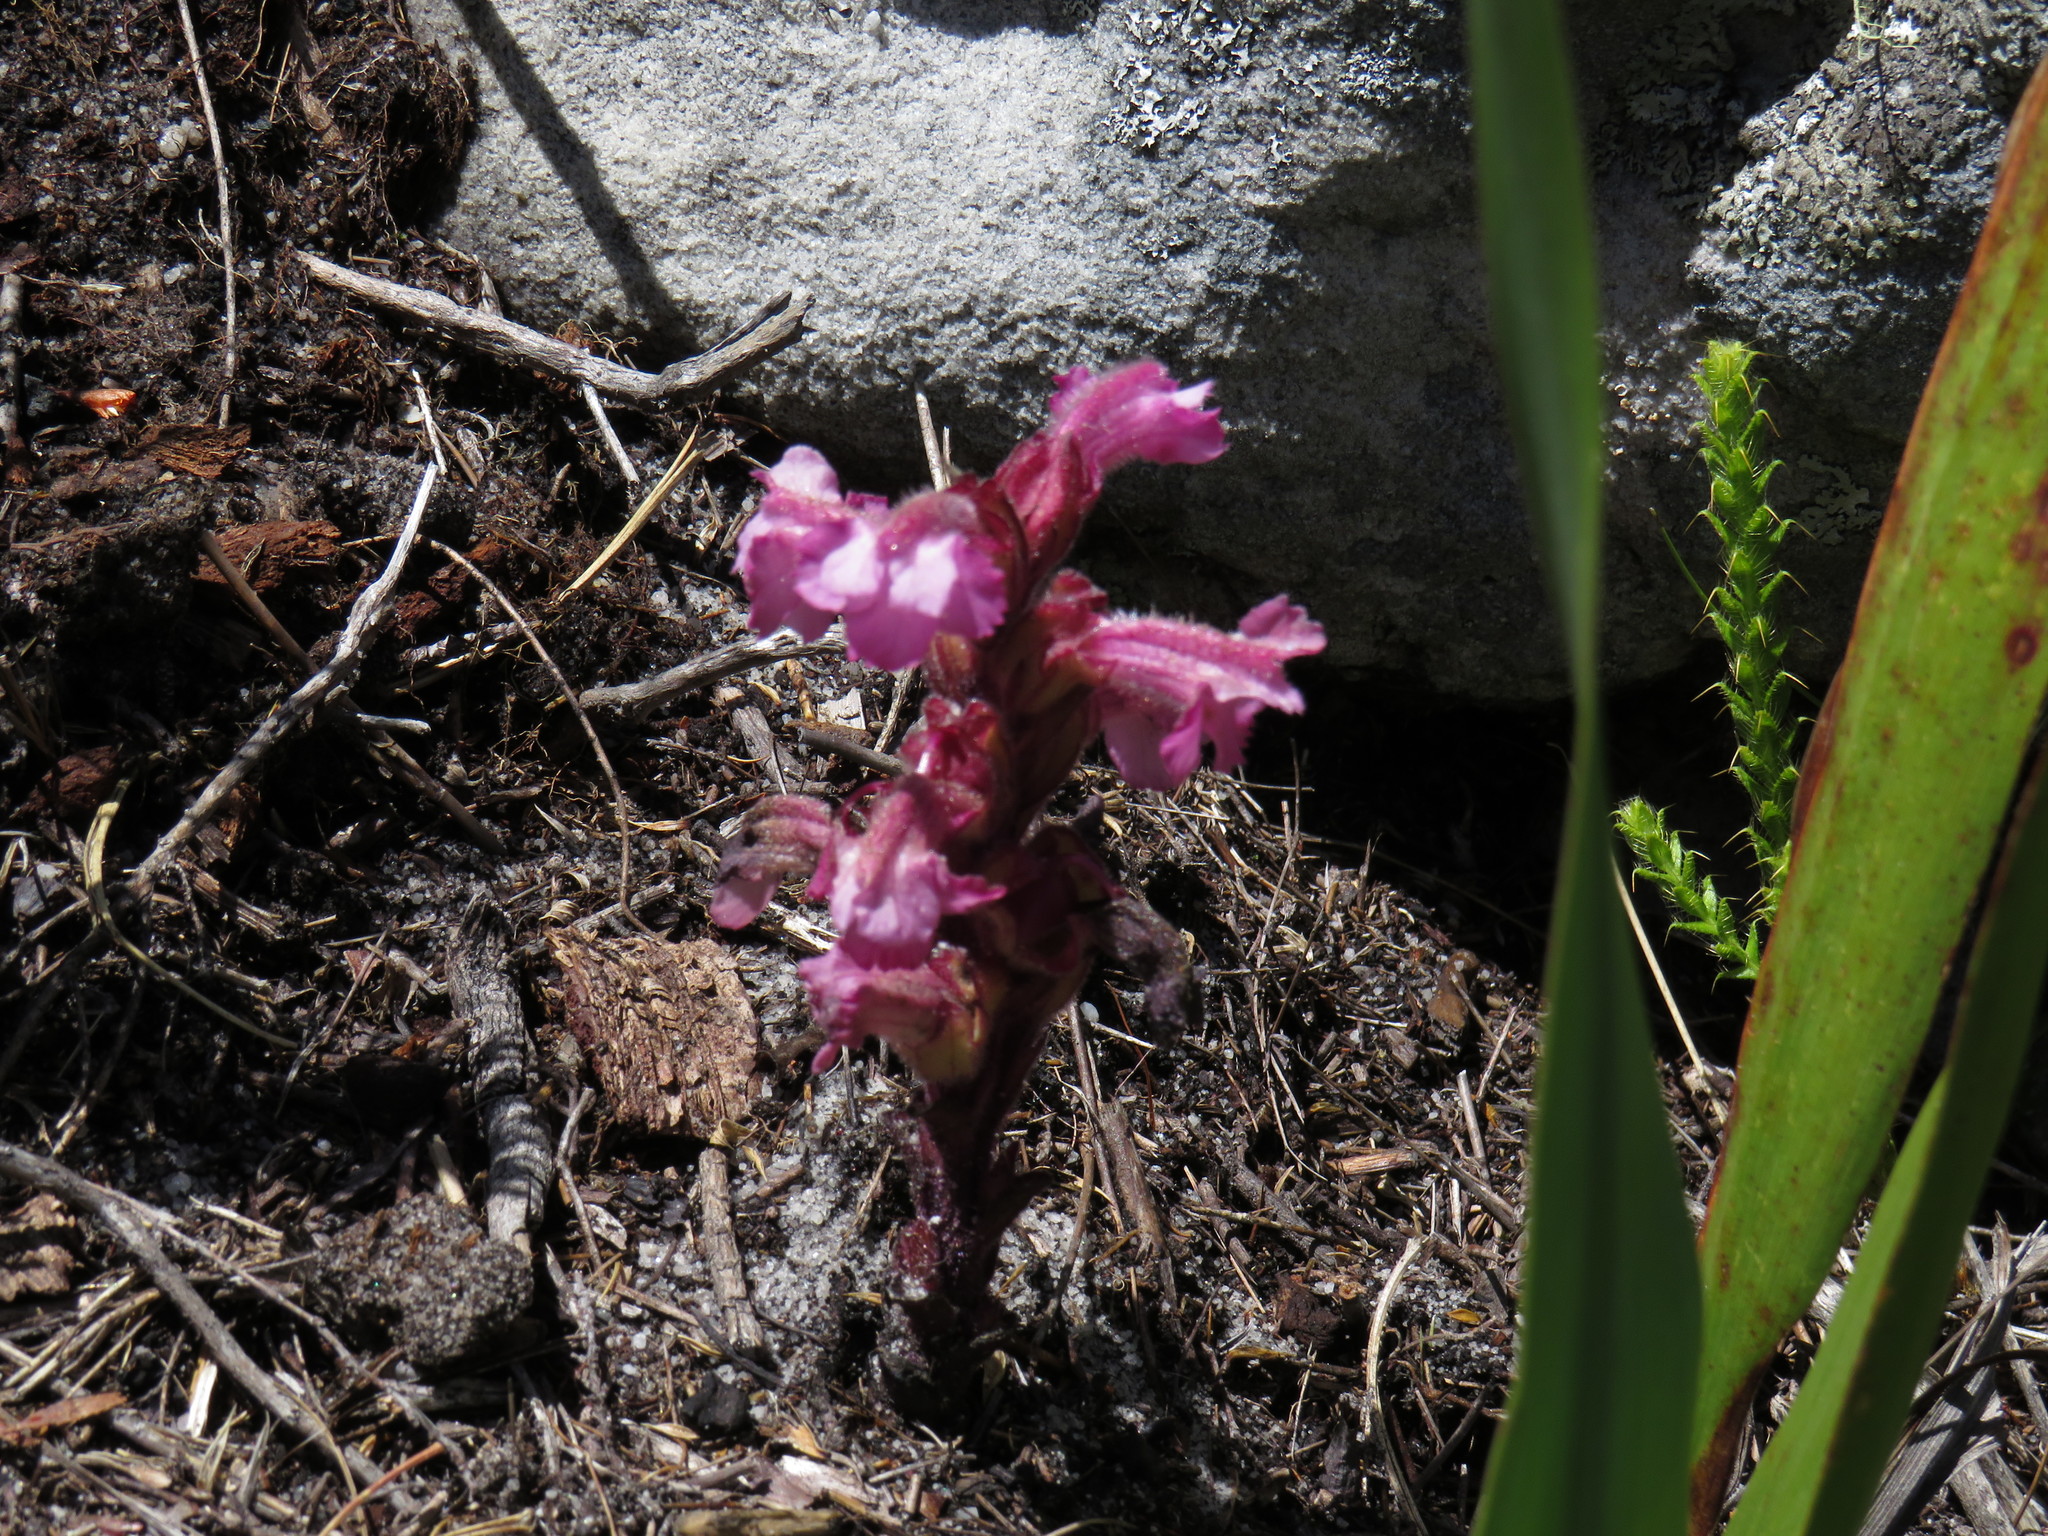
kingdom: Plantae
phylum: Tracheophyta
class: Magnoliopsida
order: Lamiales
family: Orobanchaceae
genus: Harveya
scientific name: Harveya pauciflora
